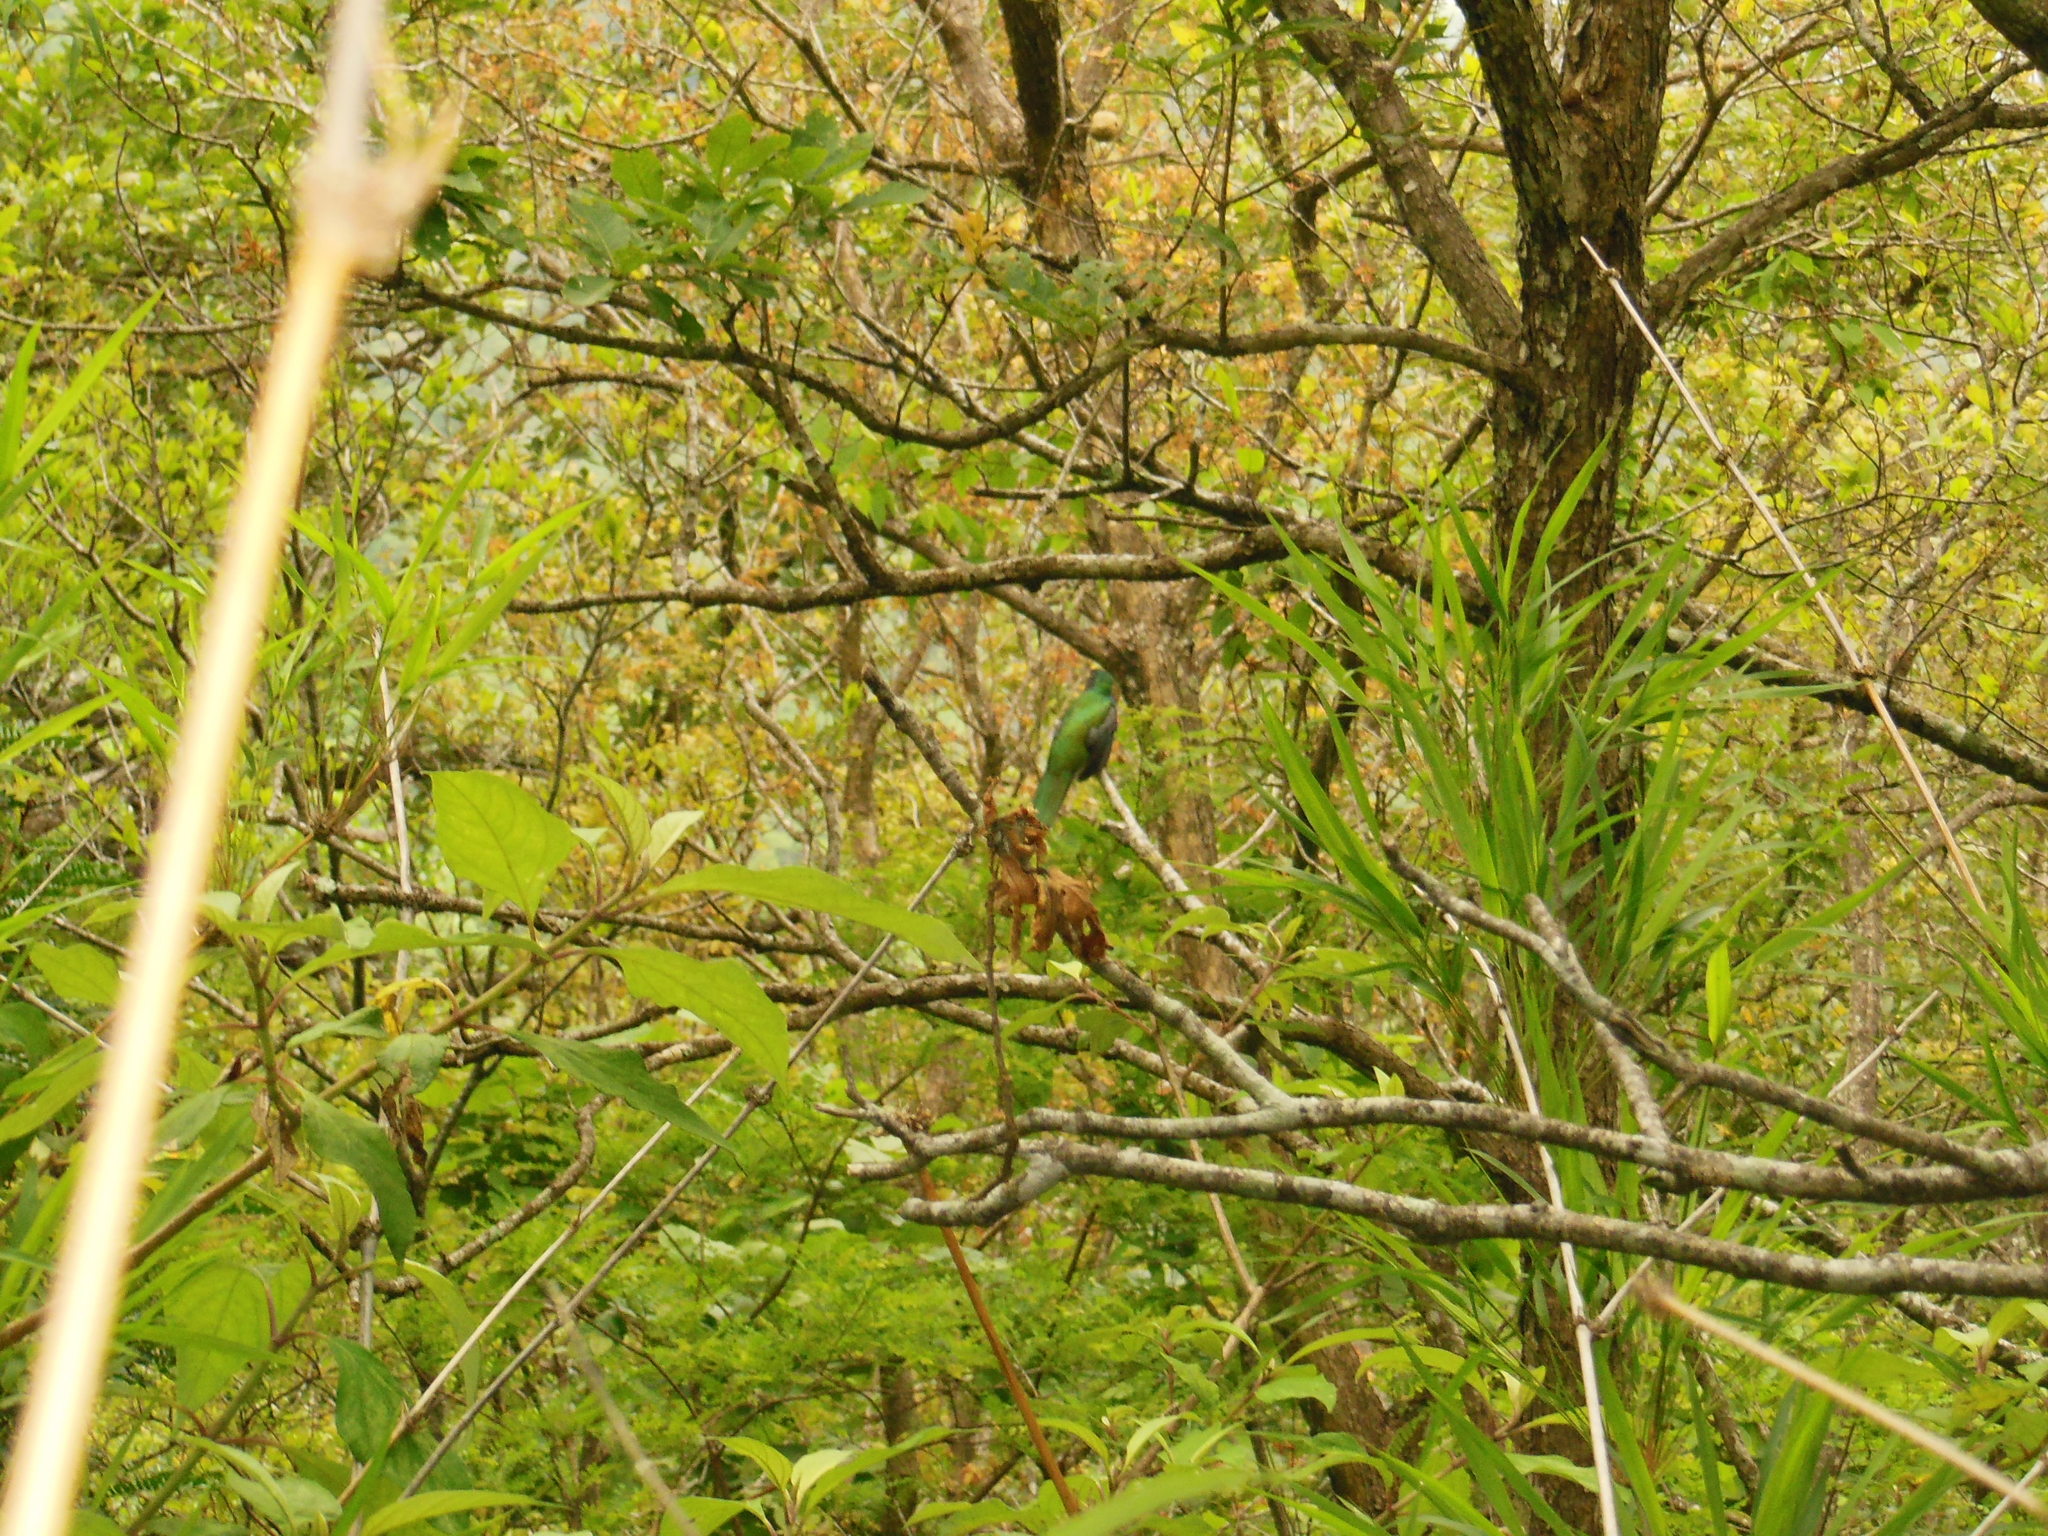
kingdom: Animalia
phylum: Chordata
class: Aves
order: Trogoniformes
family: Trogonidae
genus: Trogon
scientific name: Trogon mexicanus
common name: Mountain trogon
